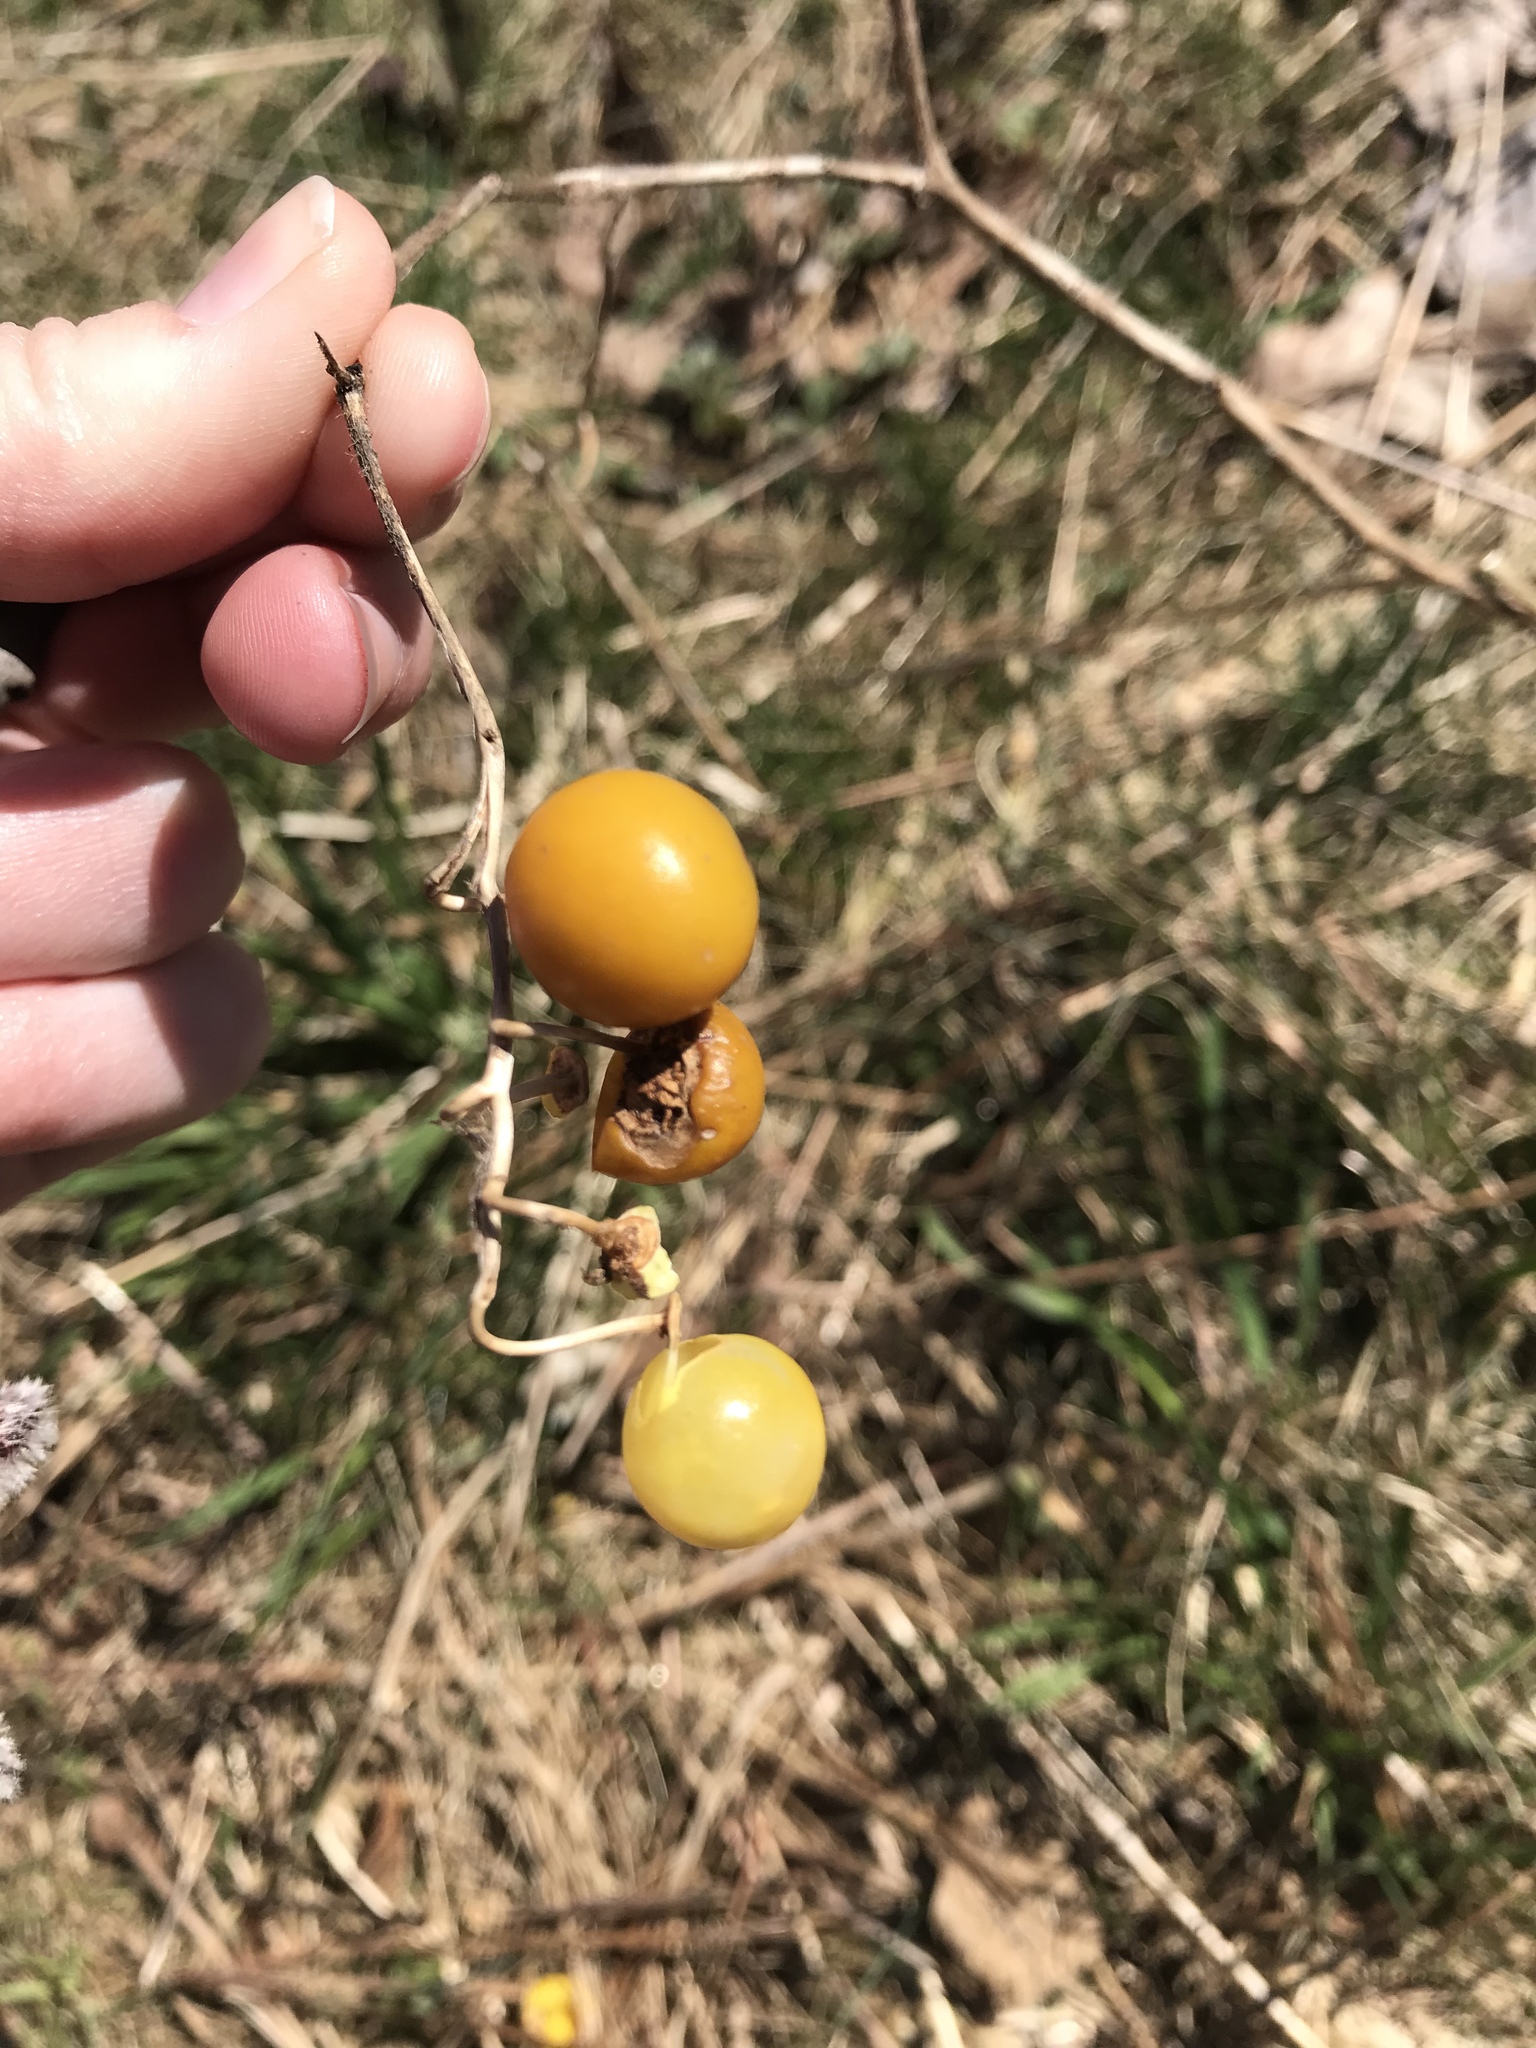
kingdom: Plantae
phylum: Tracheophyta
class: Magnoliopsida
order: Solanales
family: Solanaceae
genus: Solanum
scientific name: Solanum carolinense
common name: Horse-nettle
